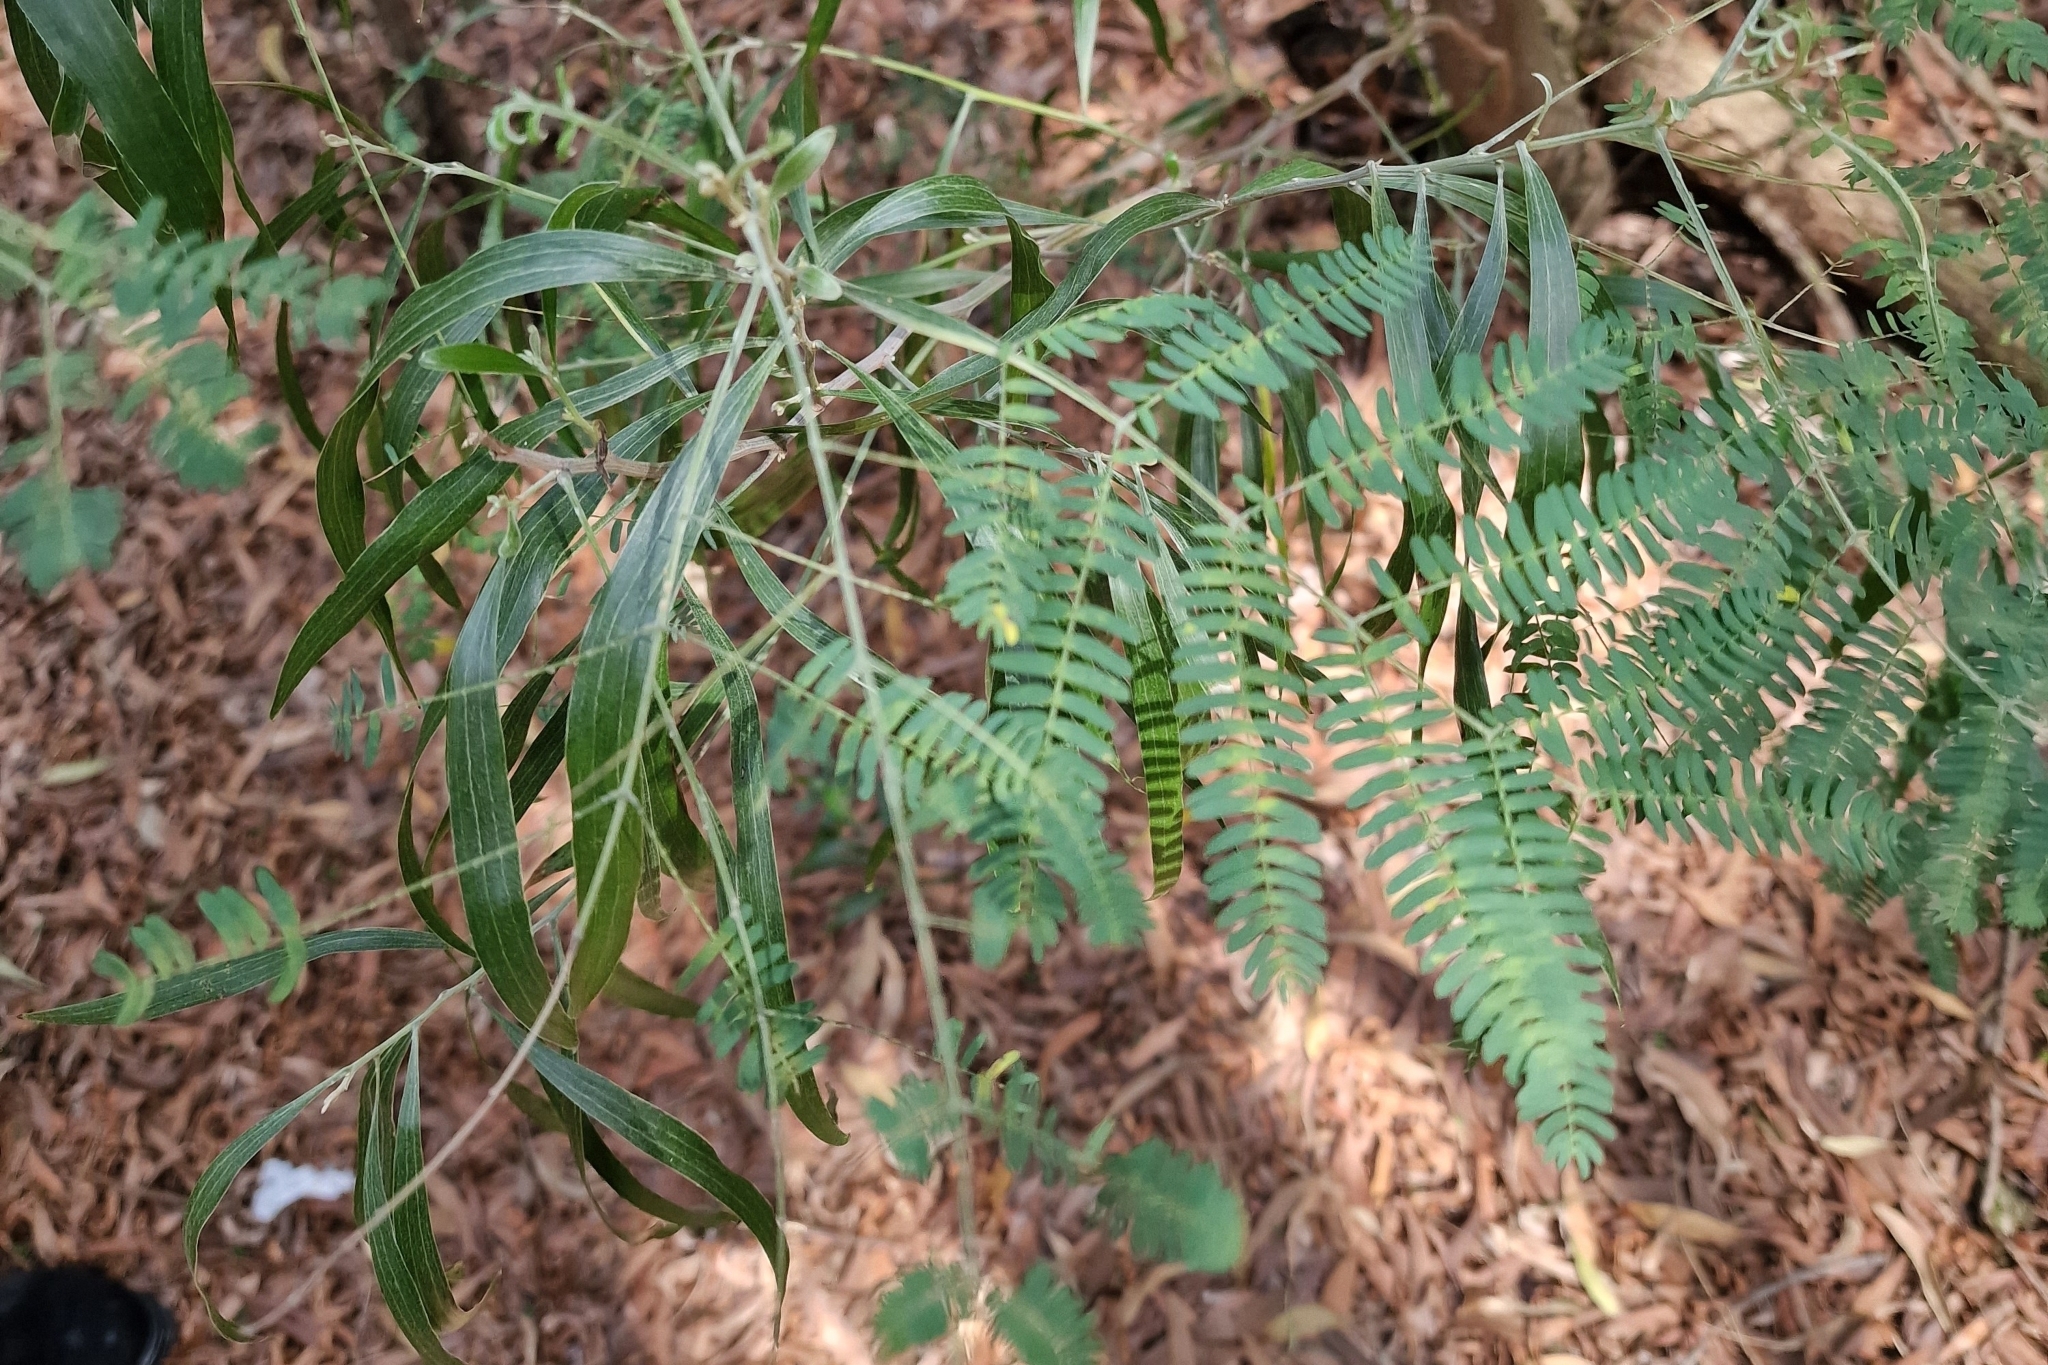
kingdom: Plantae
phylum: Tracheophyta
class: Magnoliopsida
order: Fabales
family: Fabaceae
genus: Acacia
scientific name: Acacia melanoxylon
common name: Blackwood
